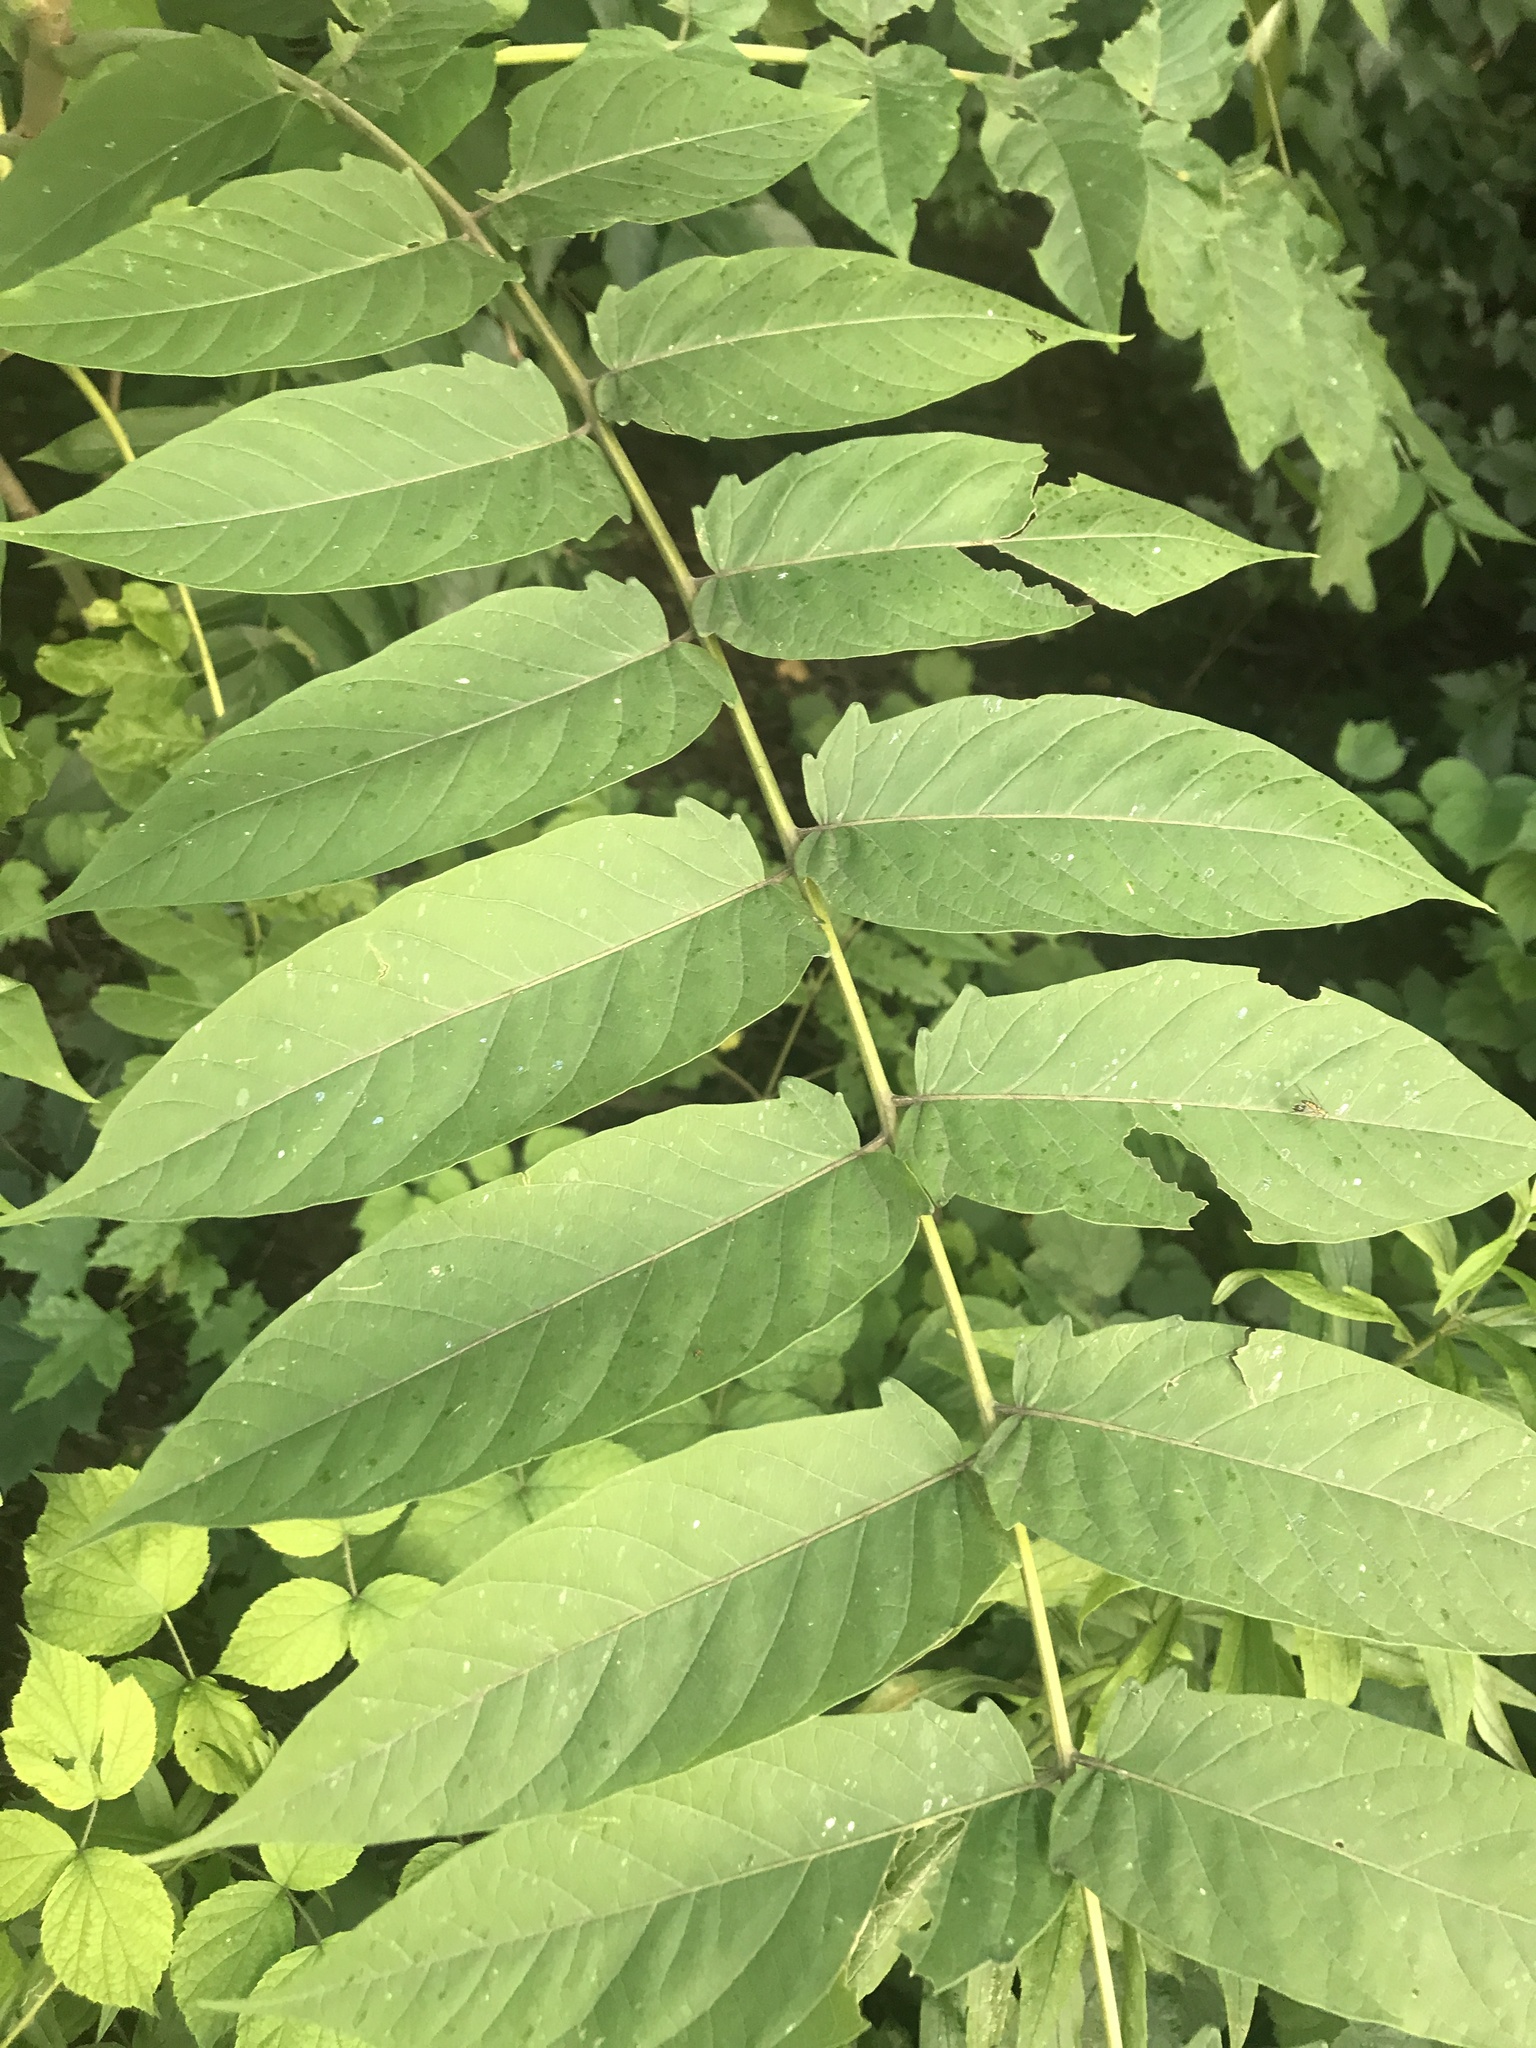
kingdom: Plantae
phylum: Tracheophyta
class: Magnoliopsida
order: Sapindales
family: Simaroubaceae
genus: Ailanthus
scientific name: Ailanthus altissima
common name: Tree-of-heaven
